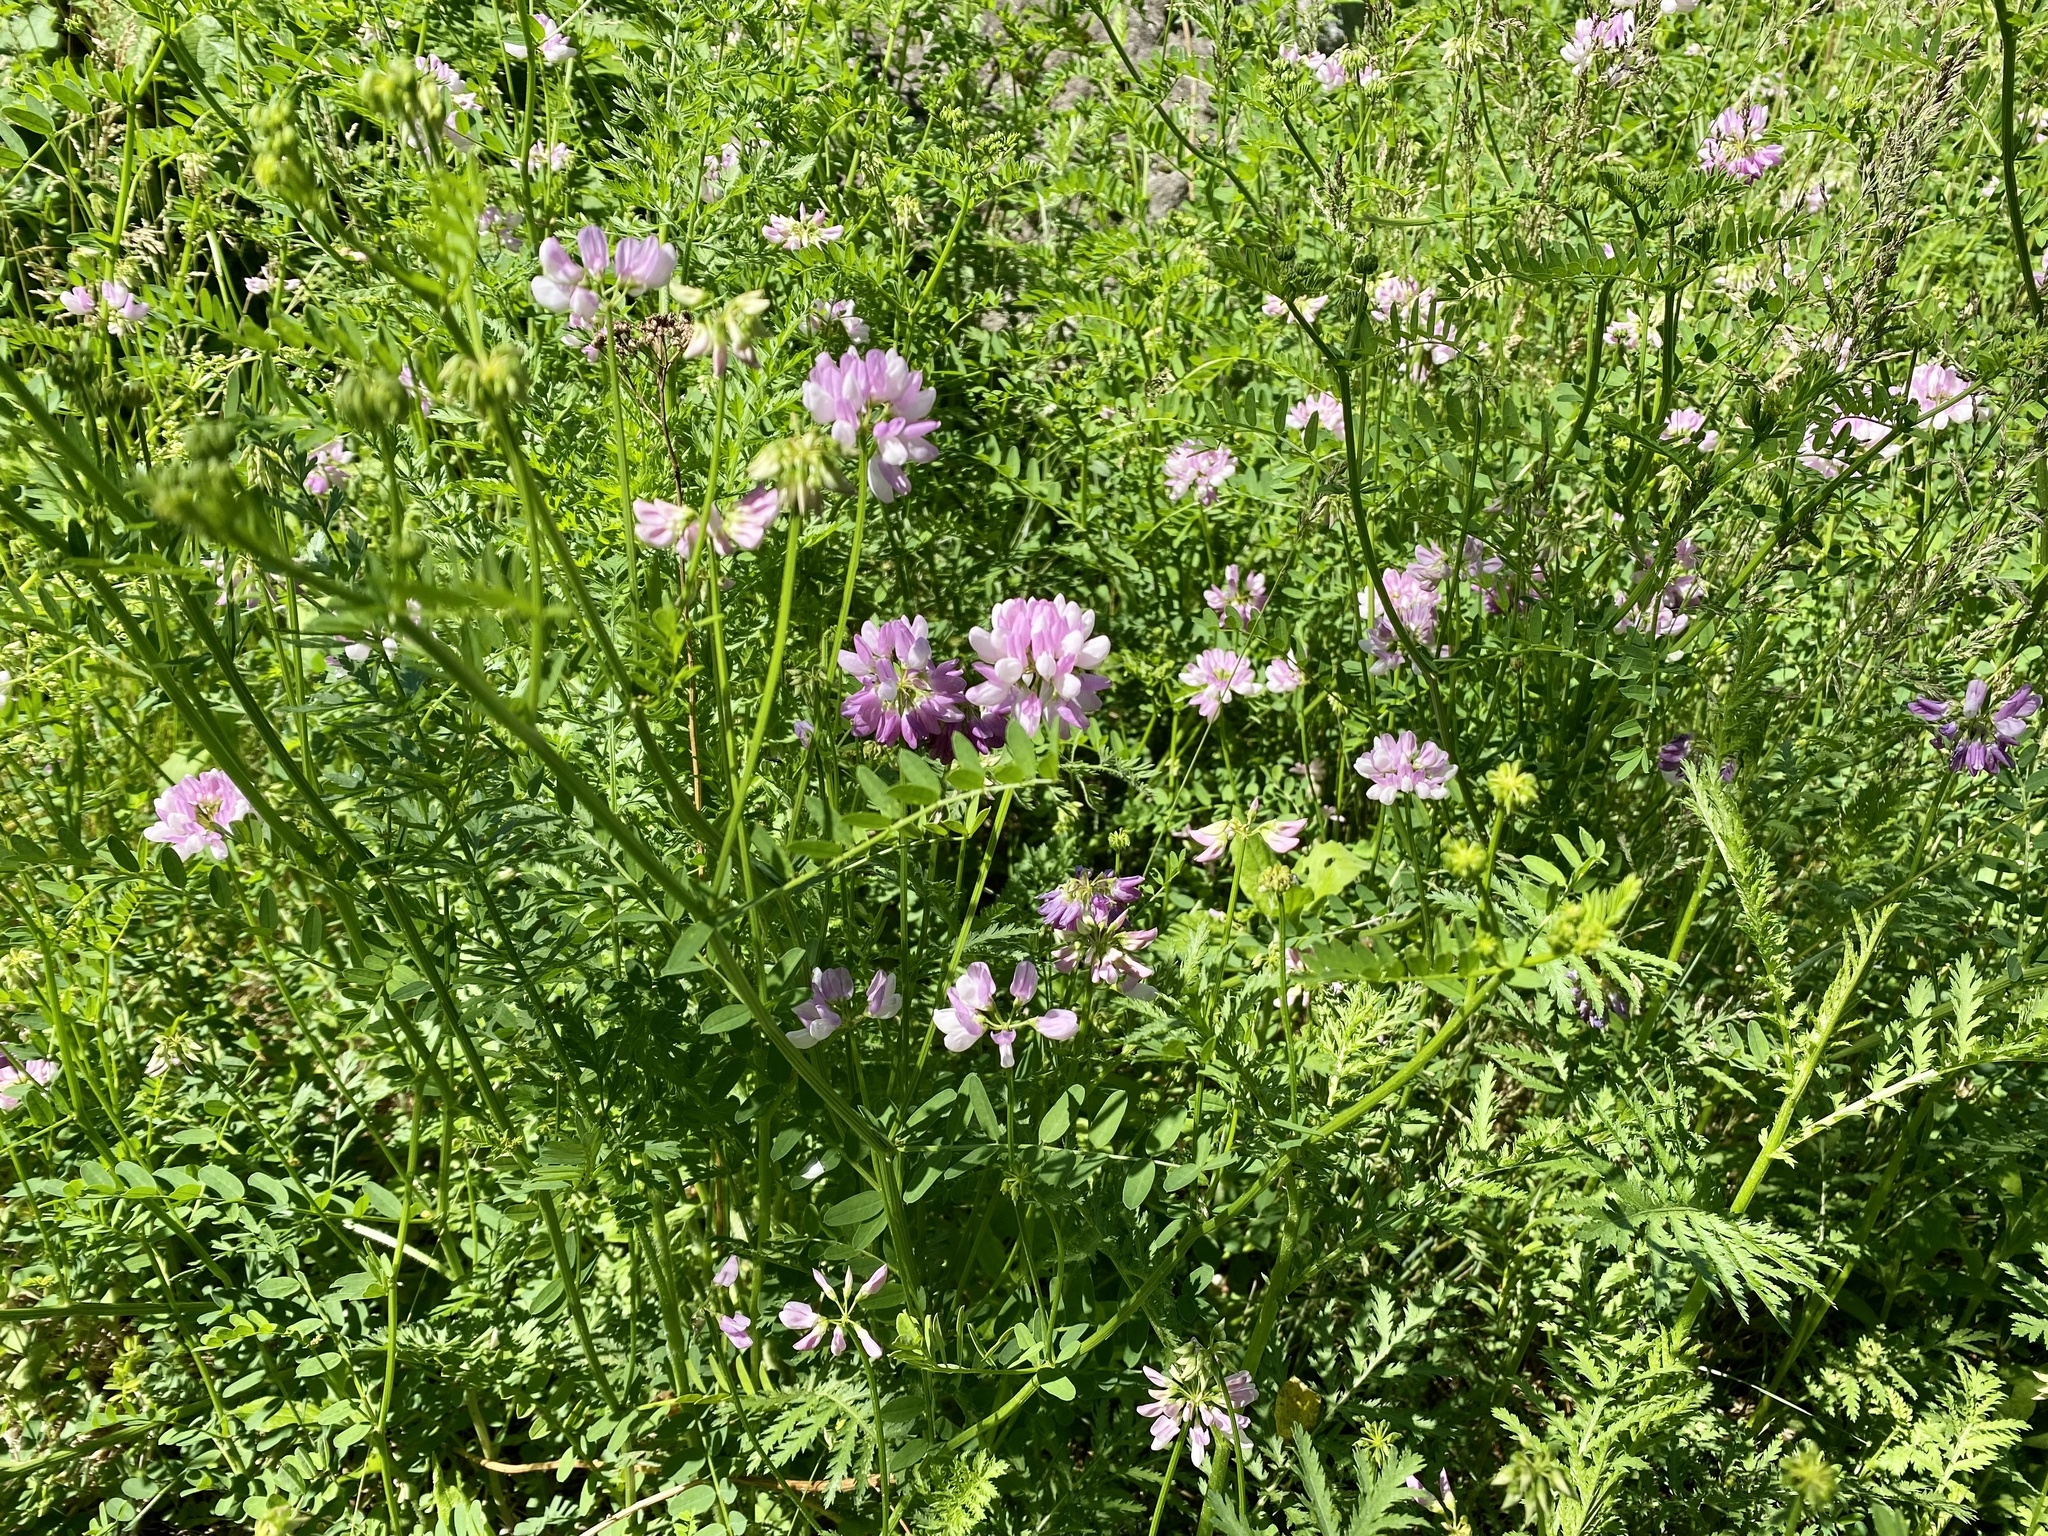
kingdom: Plantae
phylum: Tracheophyta
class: Magnoliopsida
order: Fabales
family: Fabaceae
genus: Coronilla
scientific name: Coronilla varia
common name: Crownvetch
